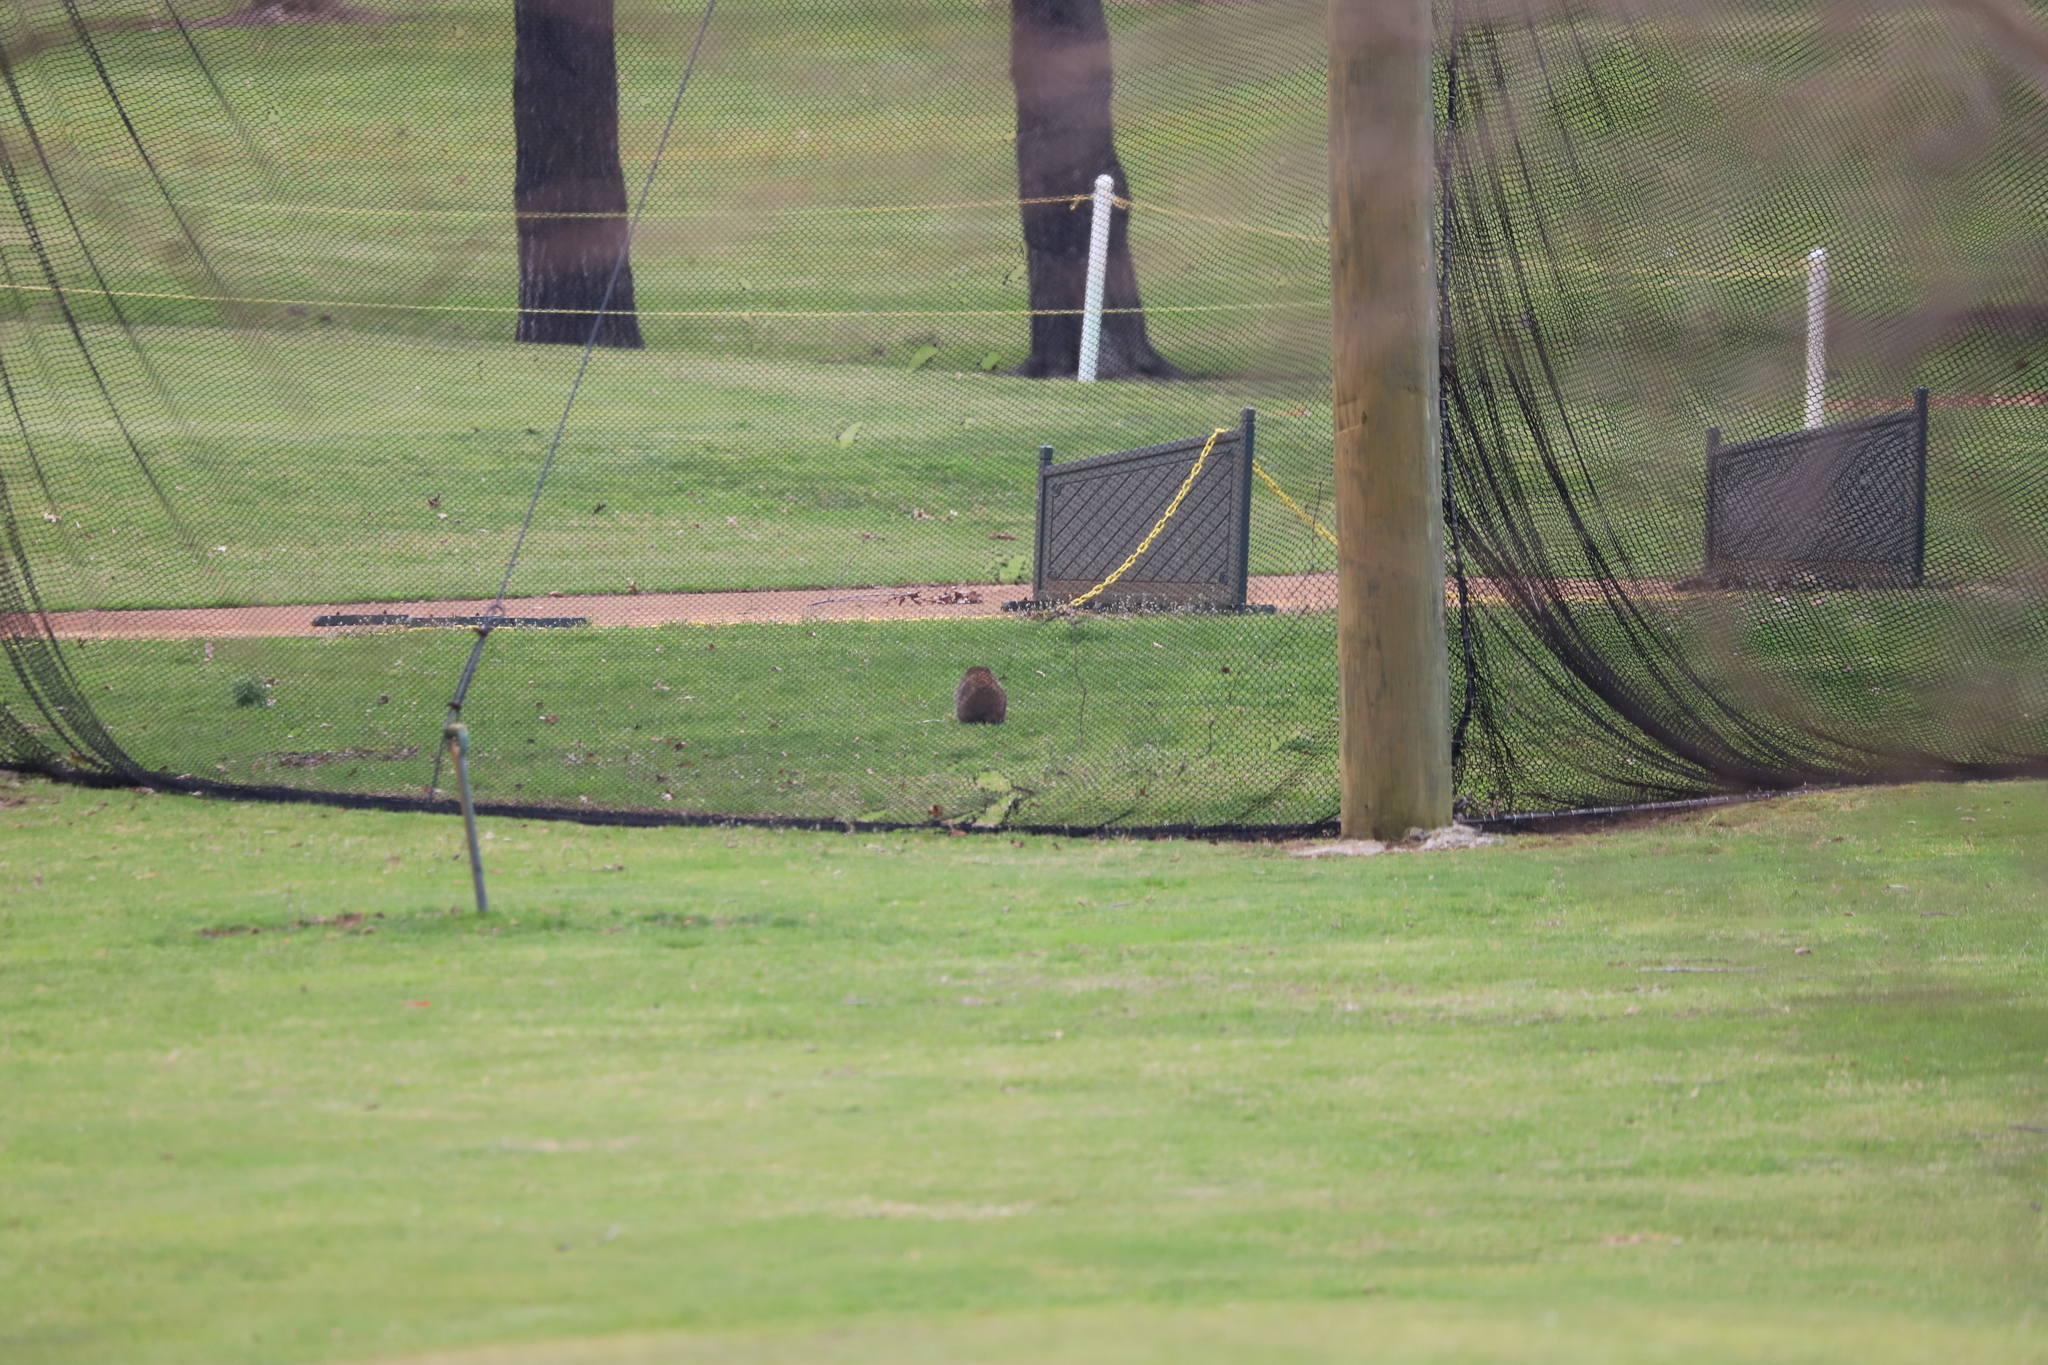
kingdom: Animalia
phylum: Chordata
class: Mammalia
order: Rodentia
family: Sciuridae
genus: Marmota
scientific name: Marmota monax
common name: Groundhog
